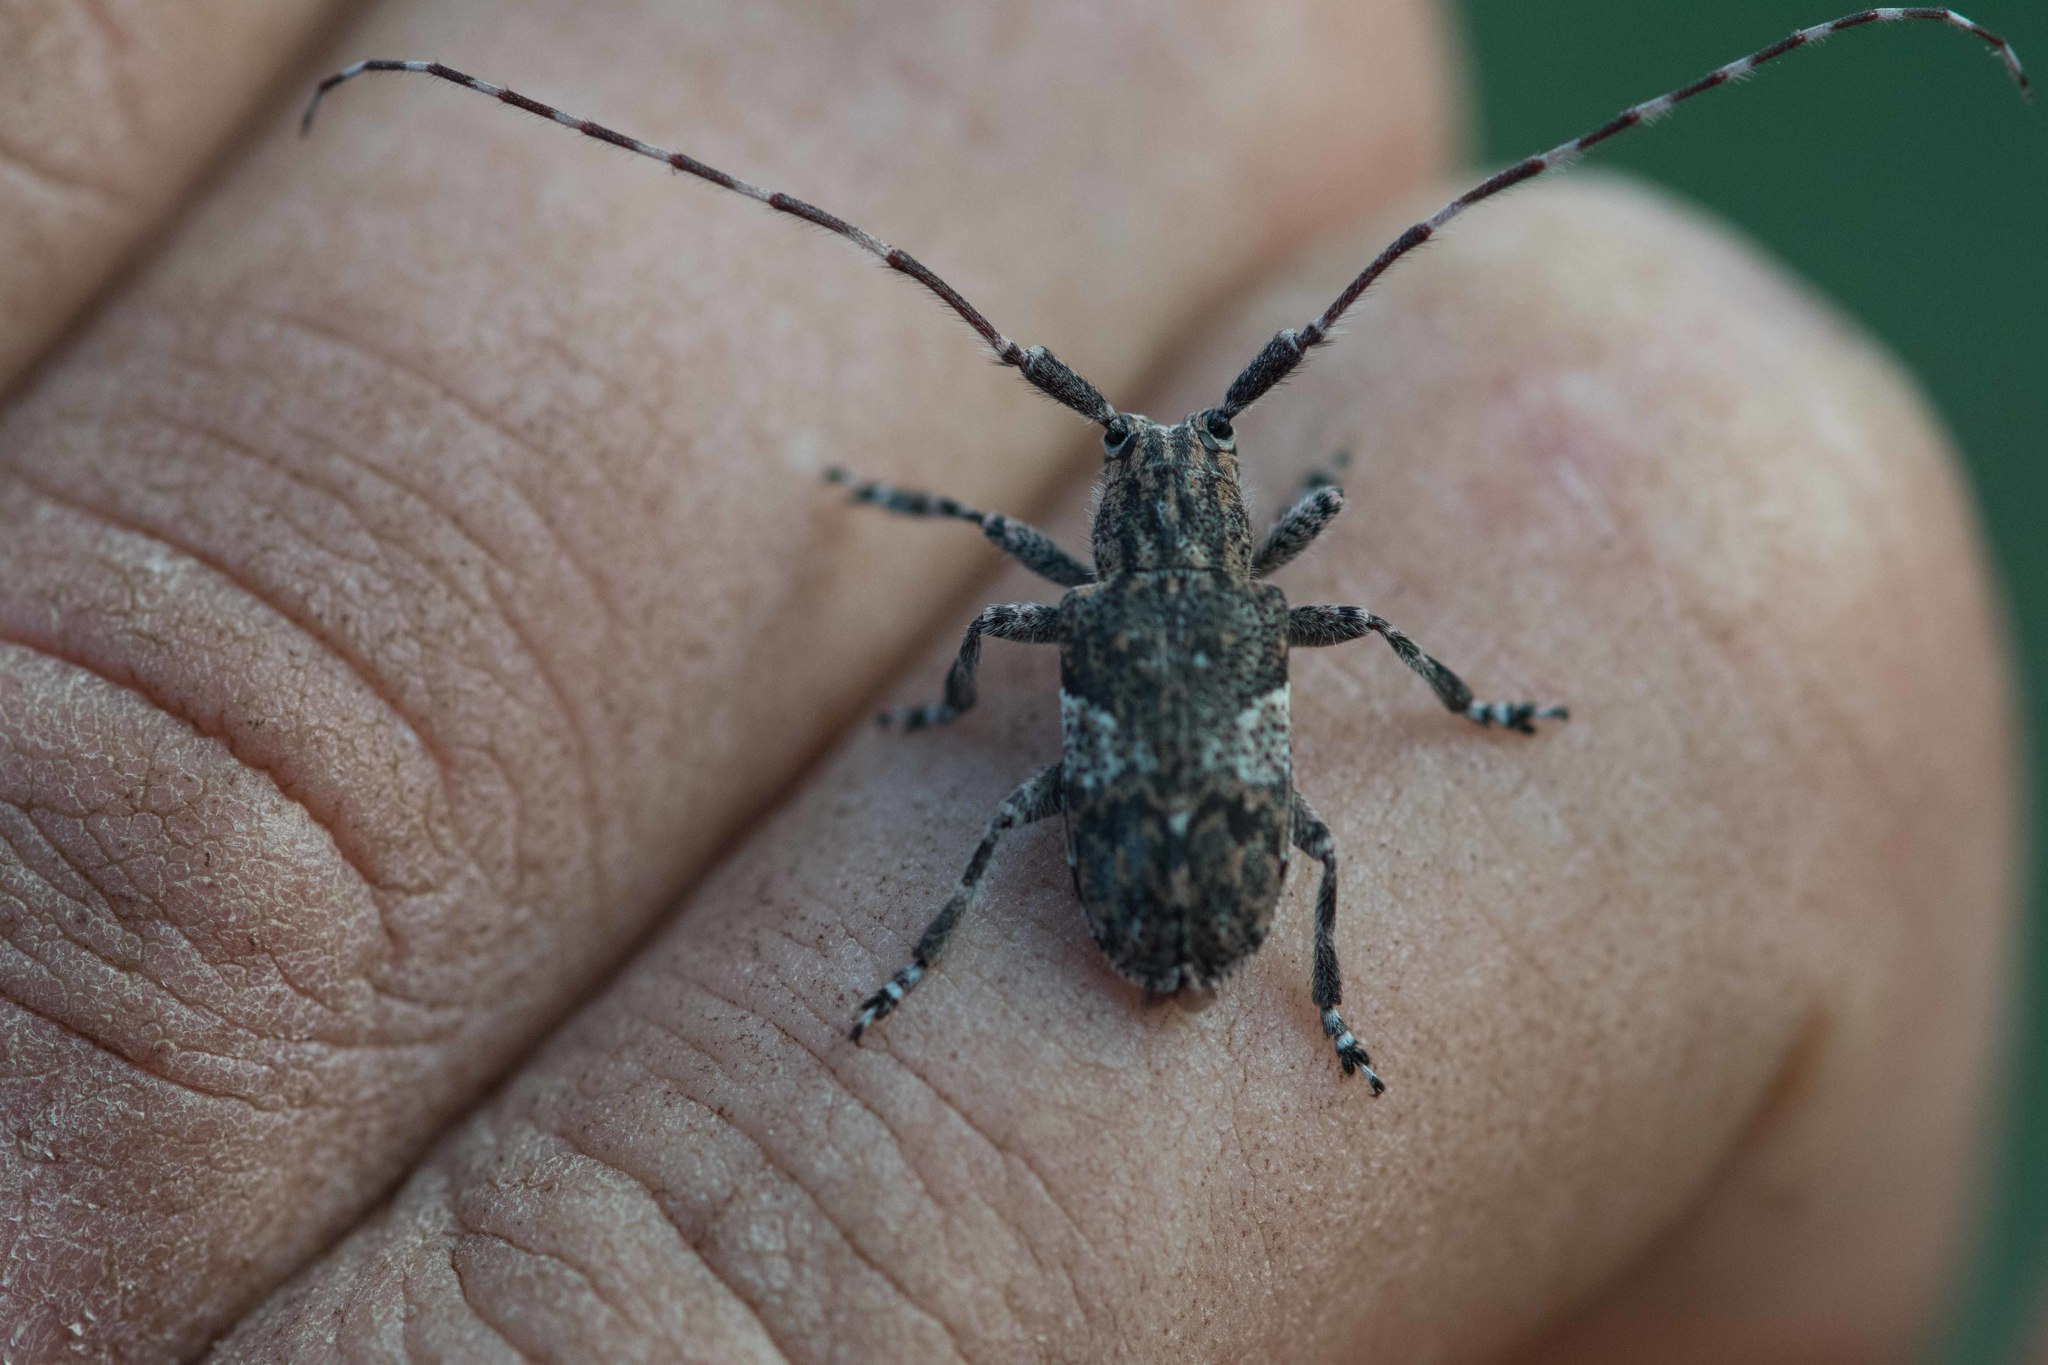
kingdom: Animalia
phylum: Arthropoda
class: Insecta
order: Coleoptera
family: Cerambycidae
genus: Mesosa
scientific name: Mesosa nebulosa
